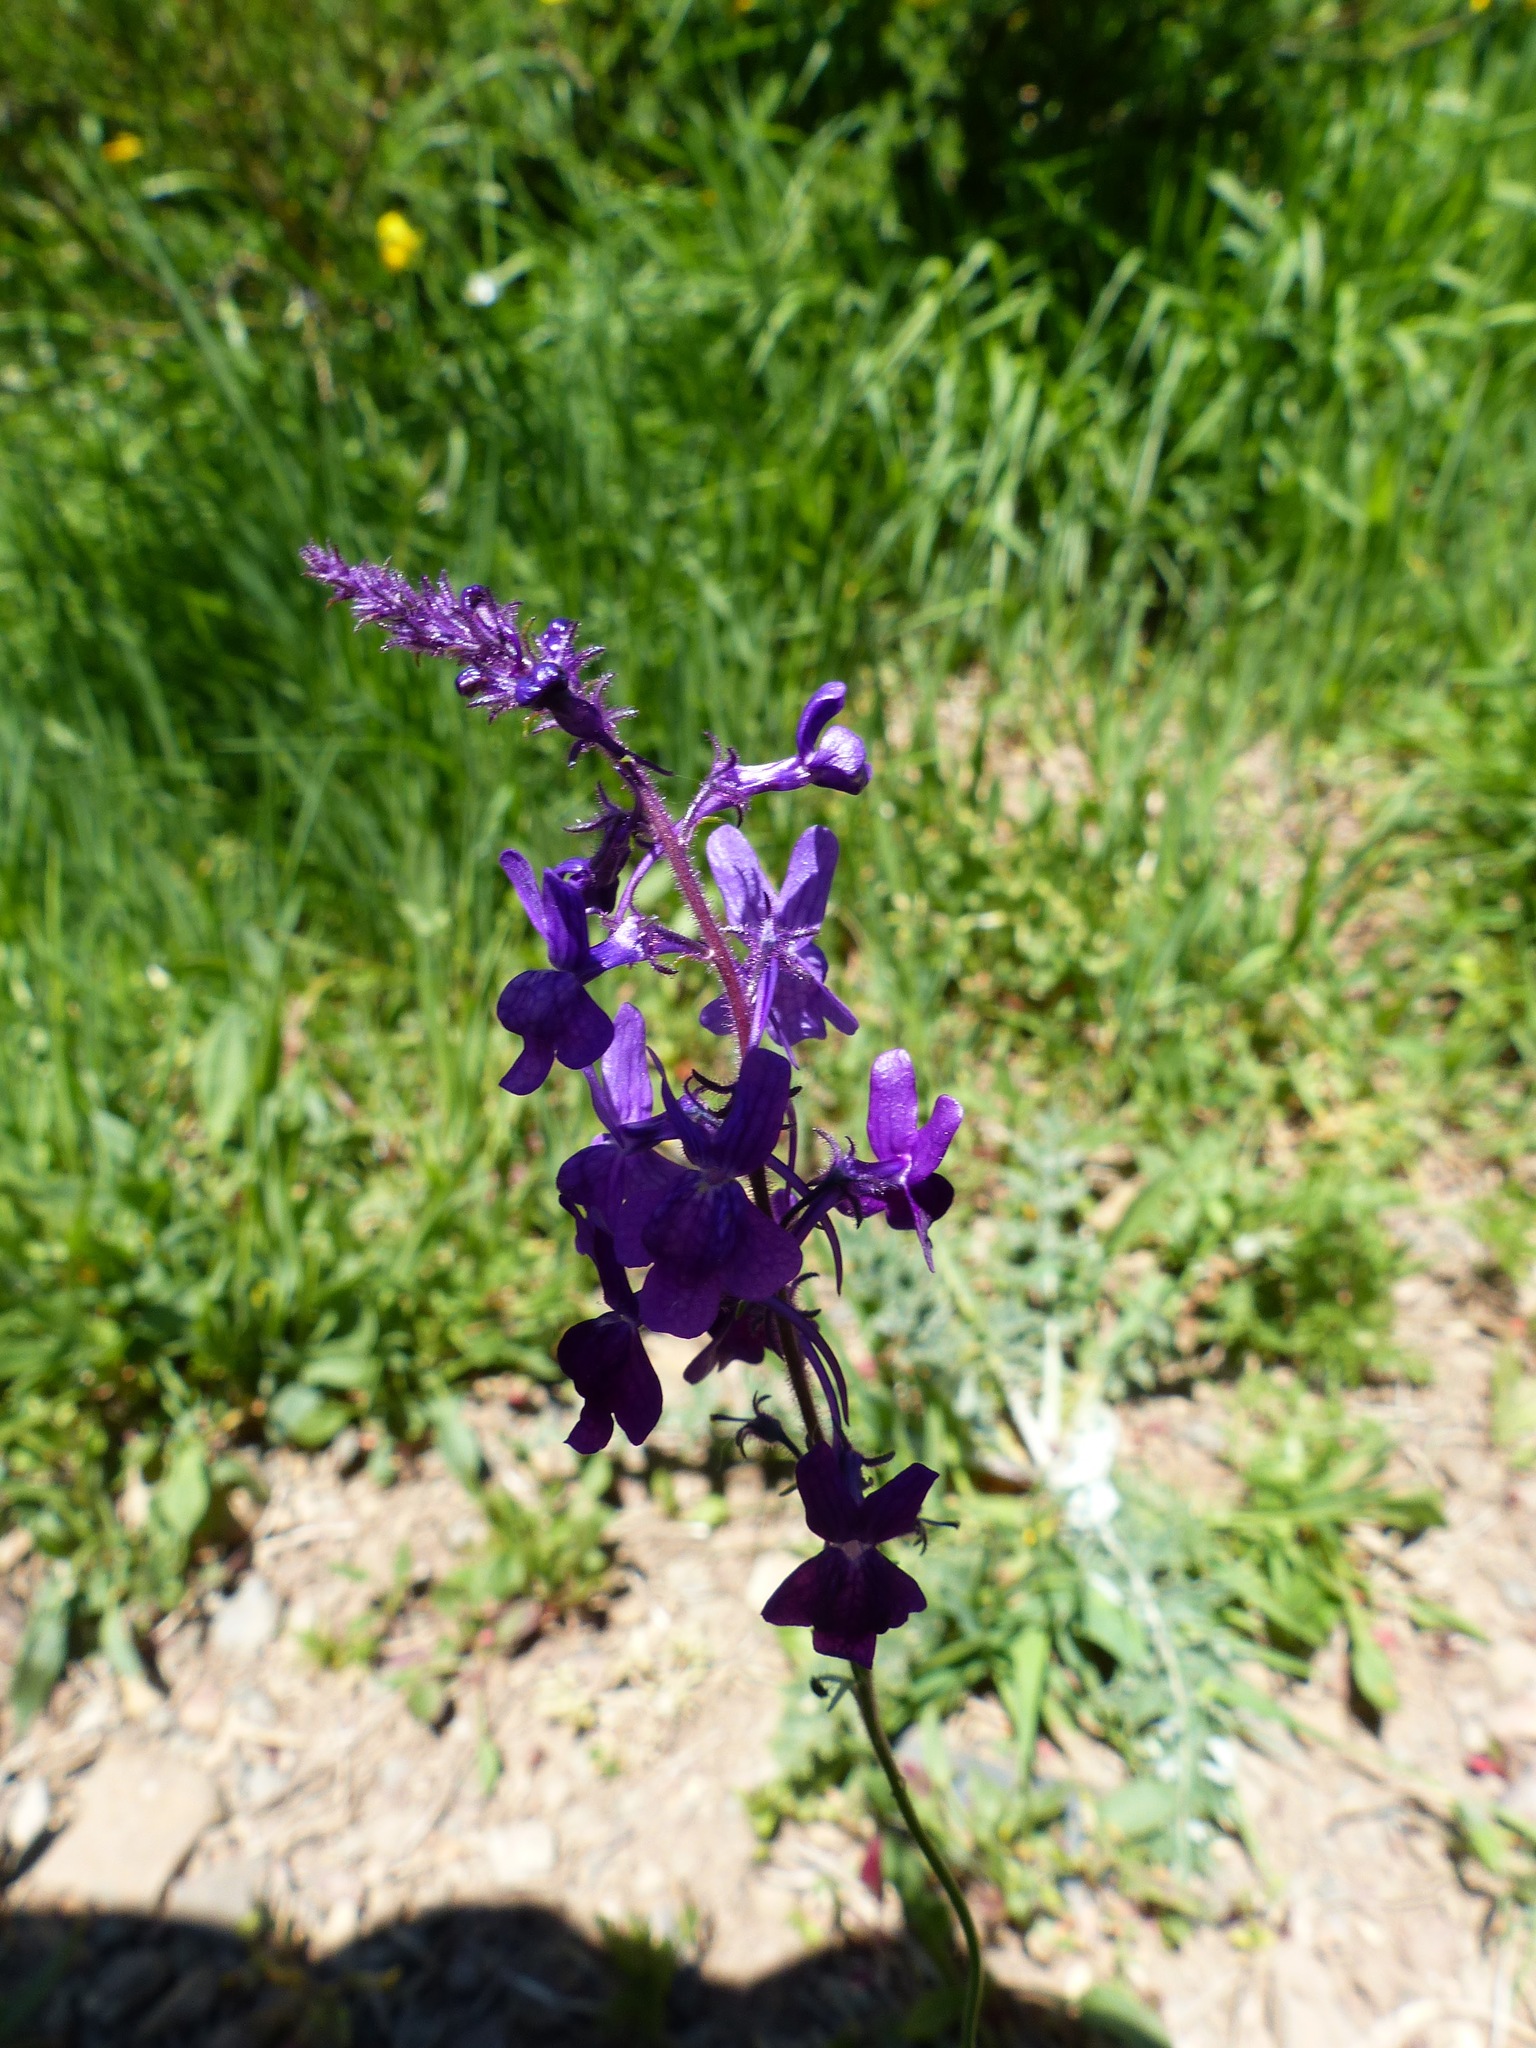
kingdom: Plantae
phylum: Tracheophyta
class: Magnoliopsida
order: Lamiales
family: Plantaginaceae
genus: Linaria
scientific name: Linaria elegans
